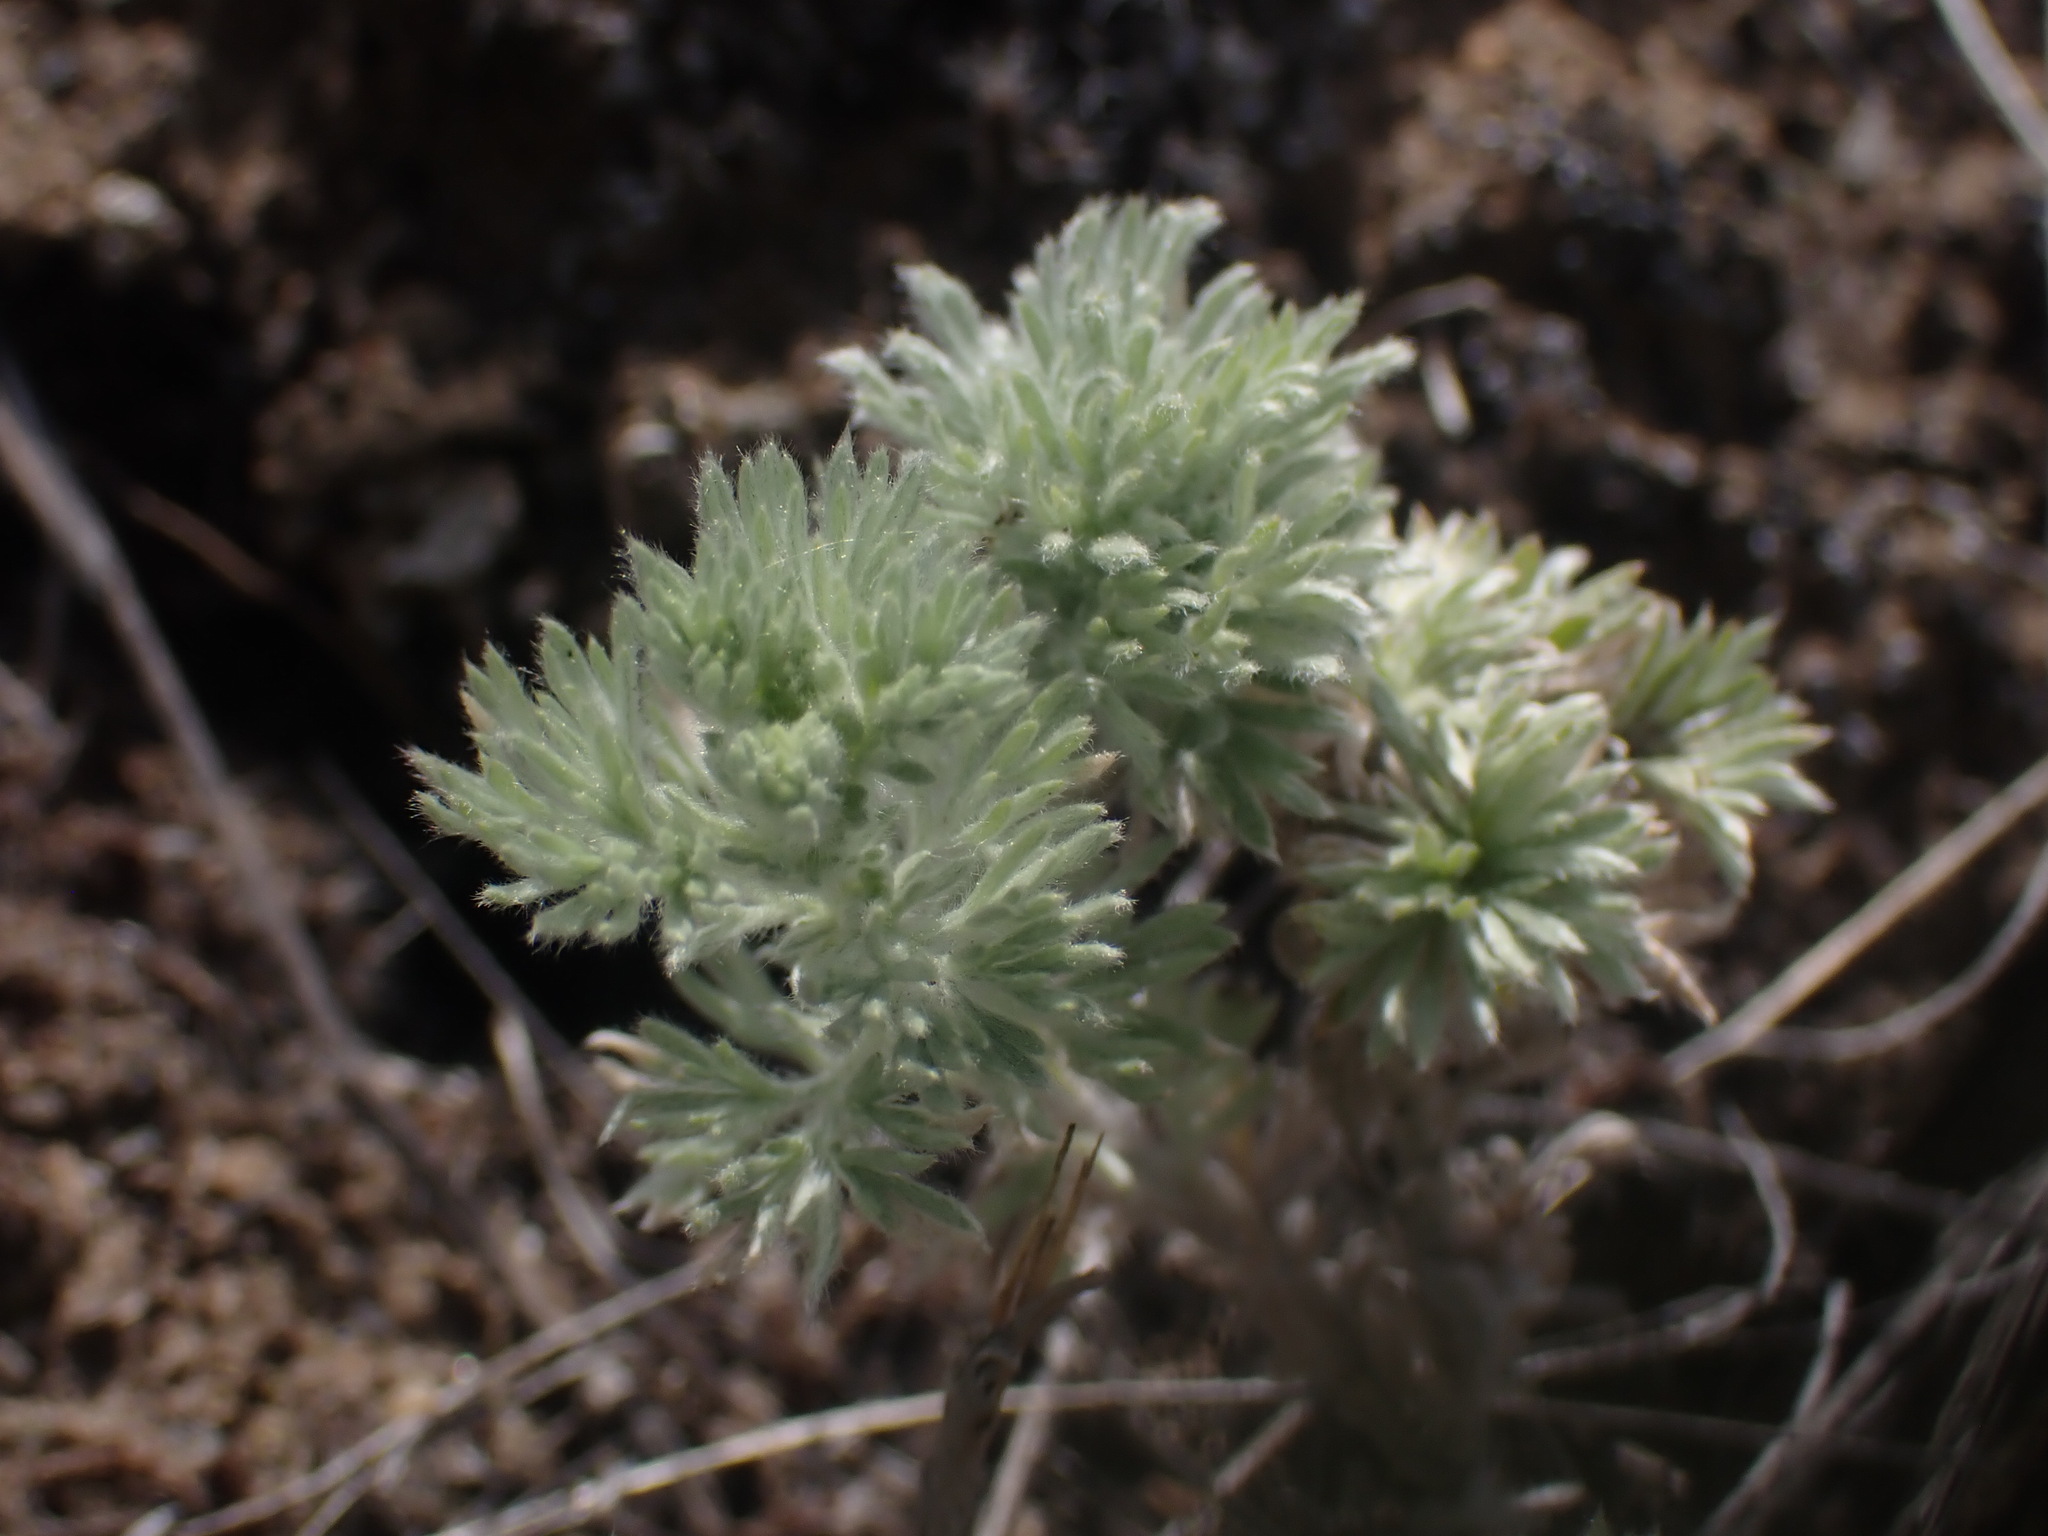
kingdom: Plantae
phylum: Tracheophyta
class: Magnoliopsida
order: Asterales
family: Asteraceae
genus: Artemisia
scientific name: Artemisia frigida
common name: Prairie sagewort
